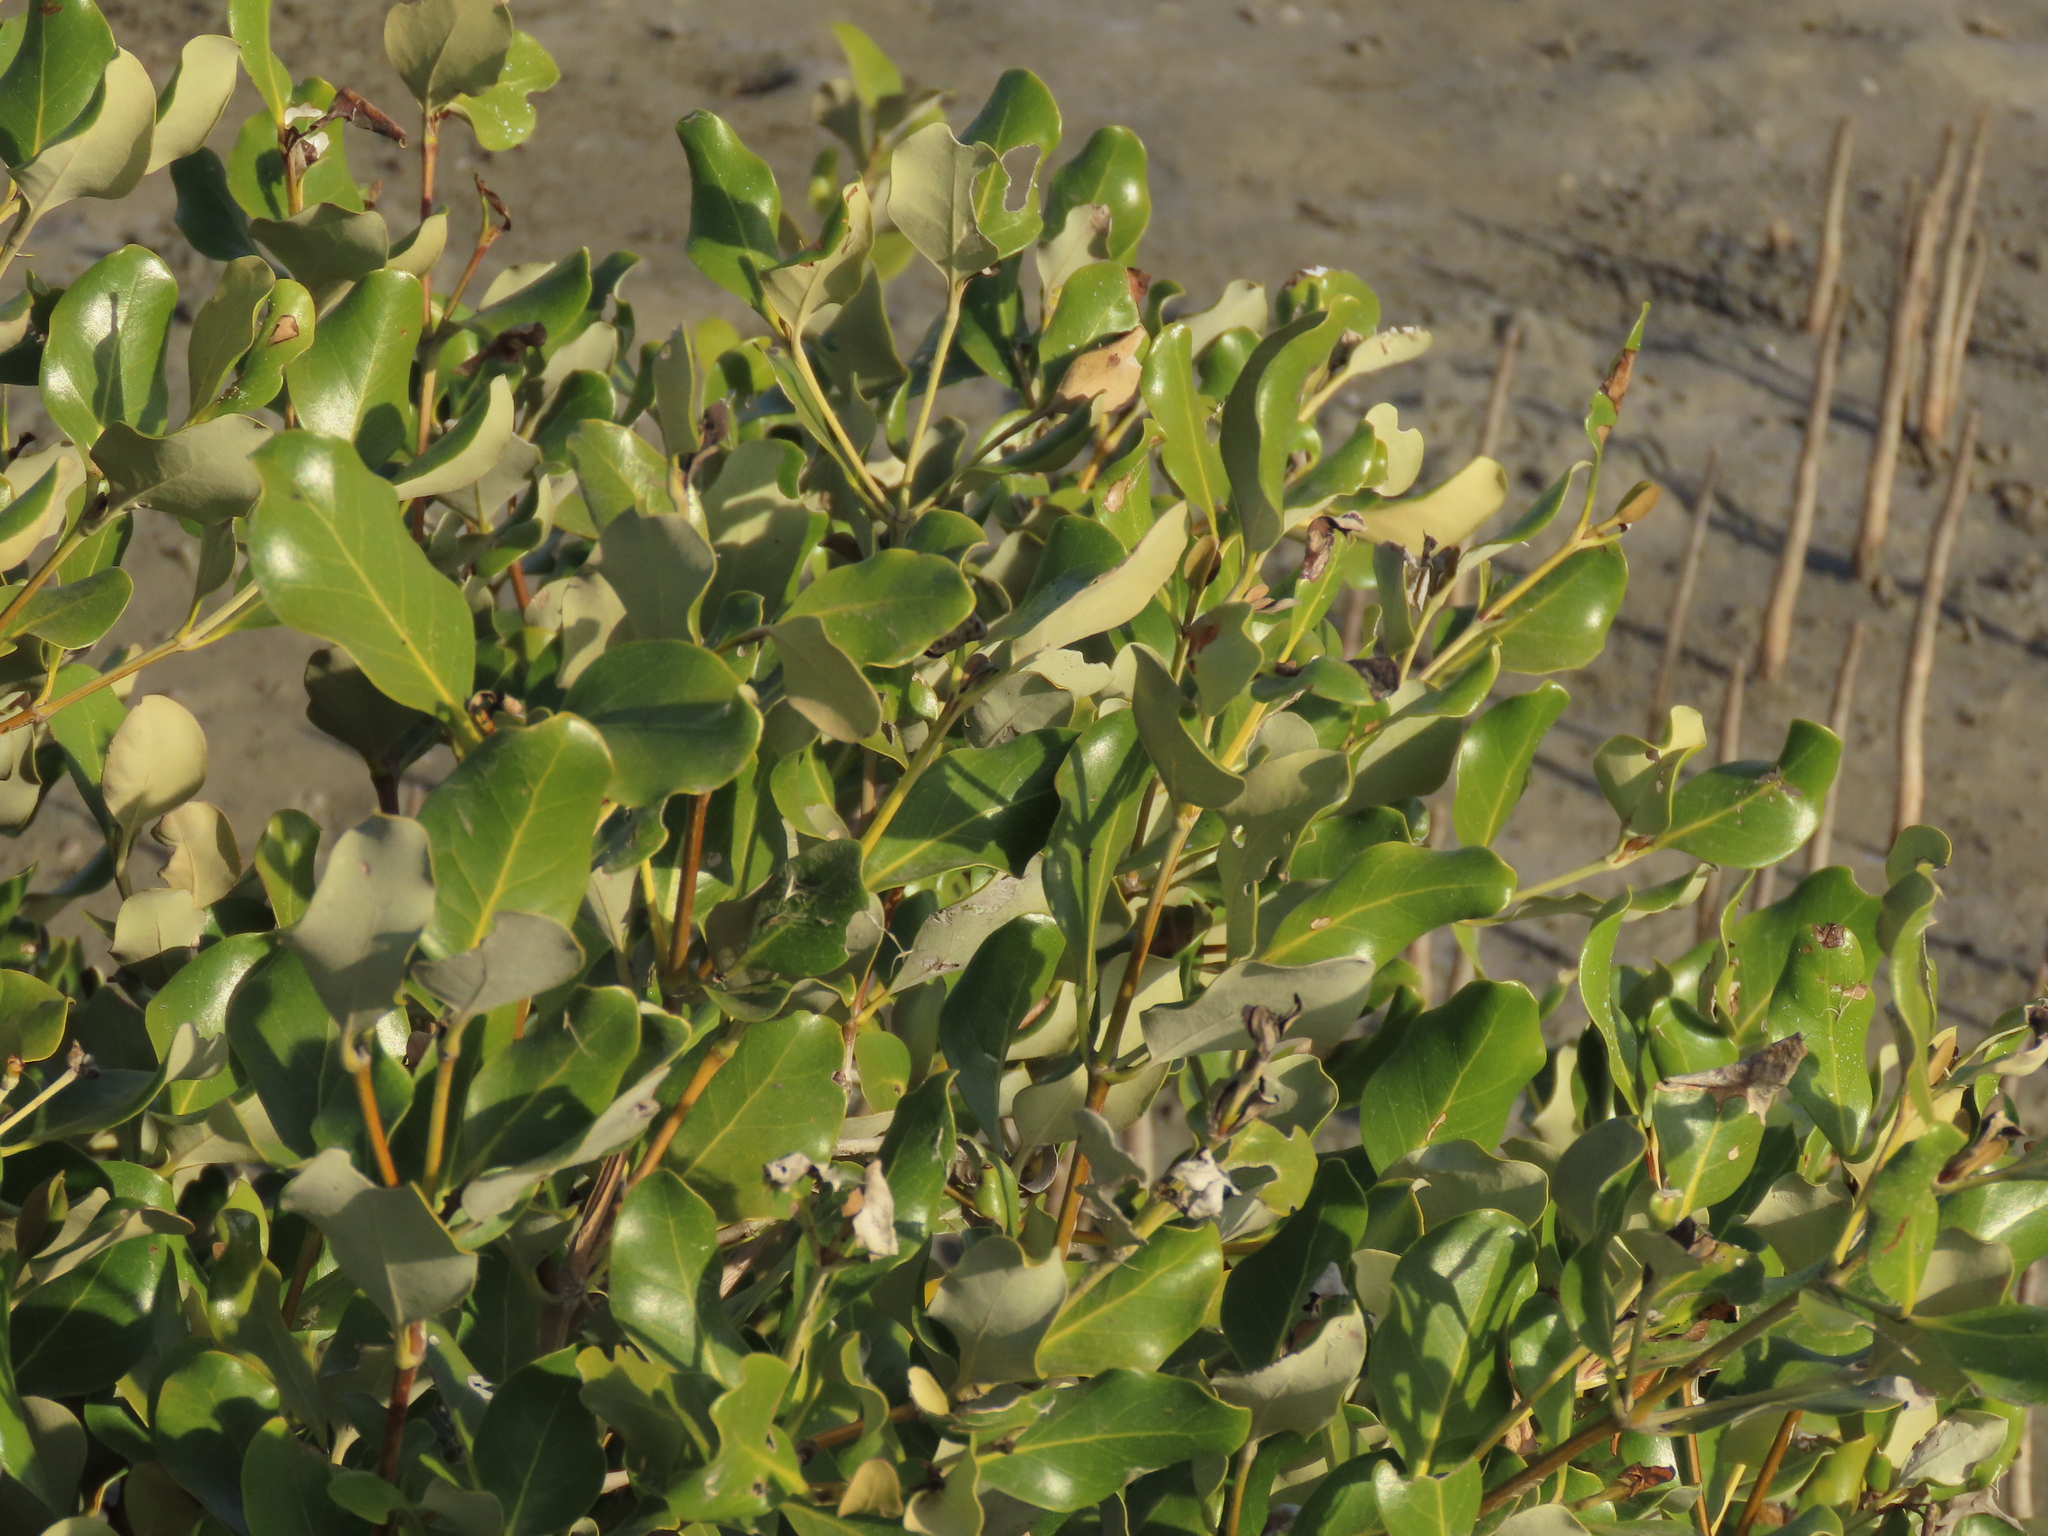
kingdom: Plantae
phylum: Tracheophyta
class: Magnoliopsida
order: Lamiales
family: Acanthaceae
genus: Avicennia
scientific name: Avicennia marina
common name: Gray mangrove
